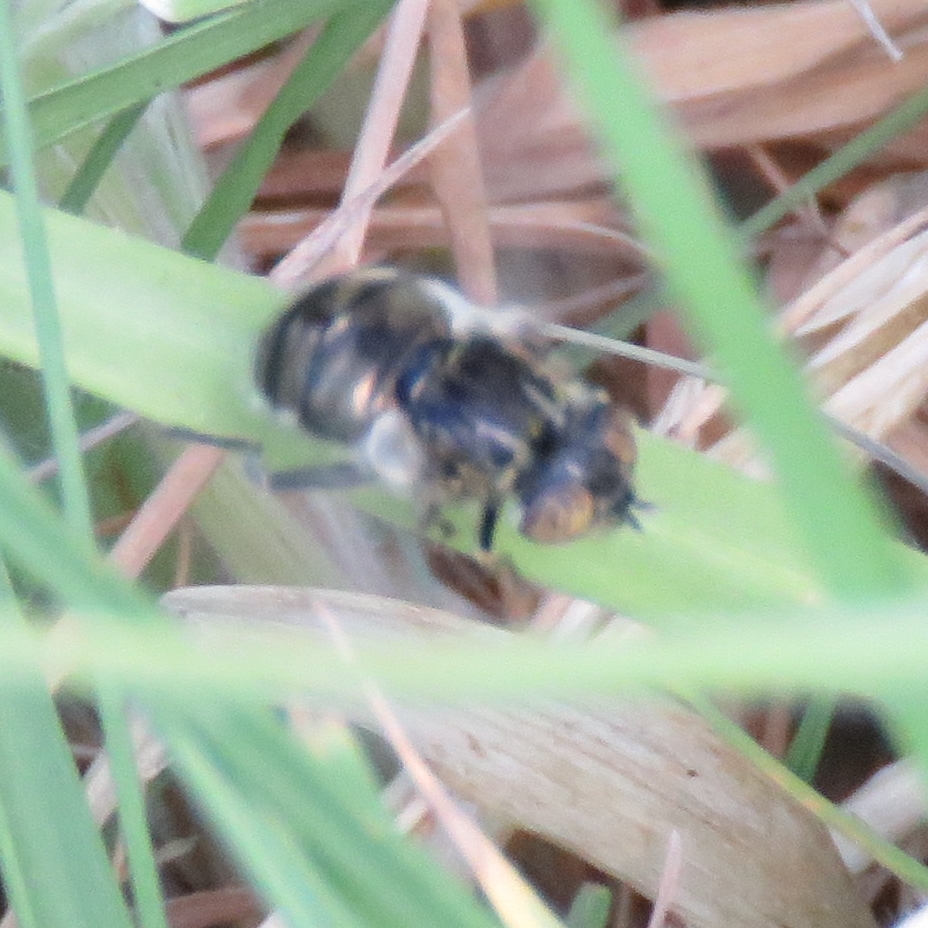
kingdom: Animalia
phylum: Arthropoda
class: Insecta
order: Diptera
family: Syrphidae
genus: Eristalinus
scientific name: Eristalinus sepulchralis
